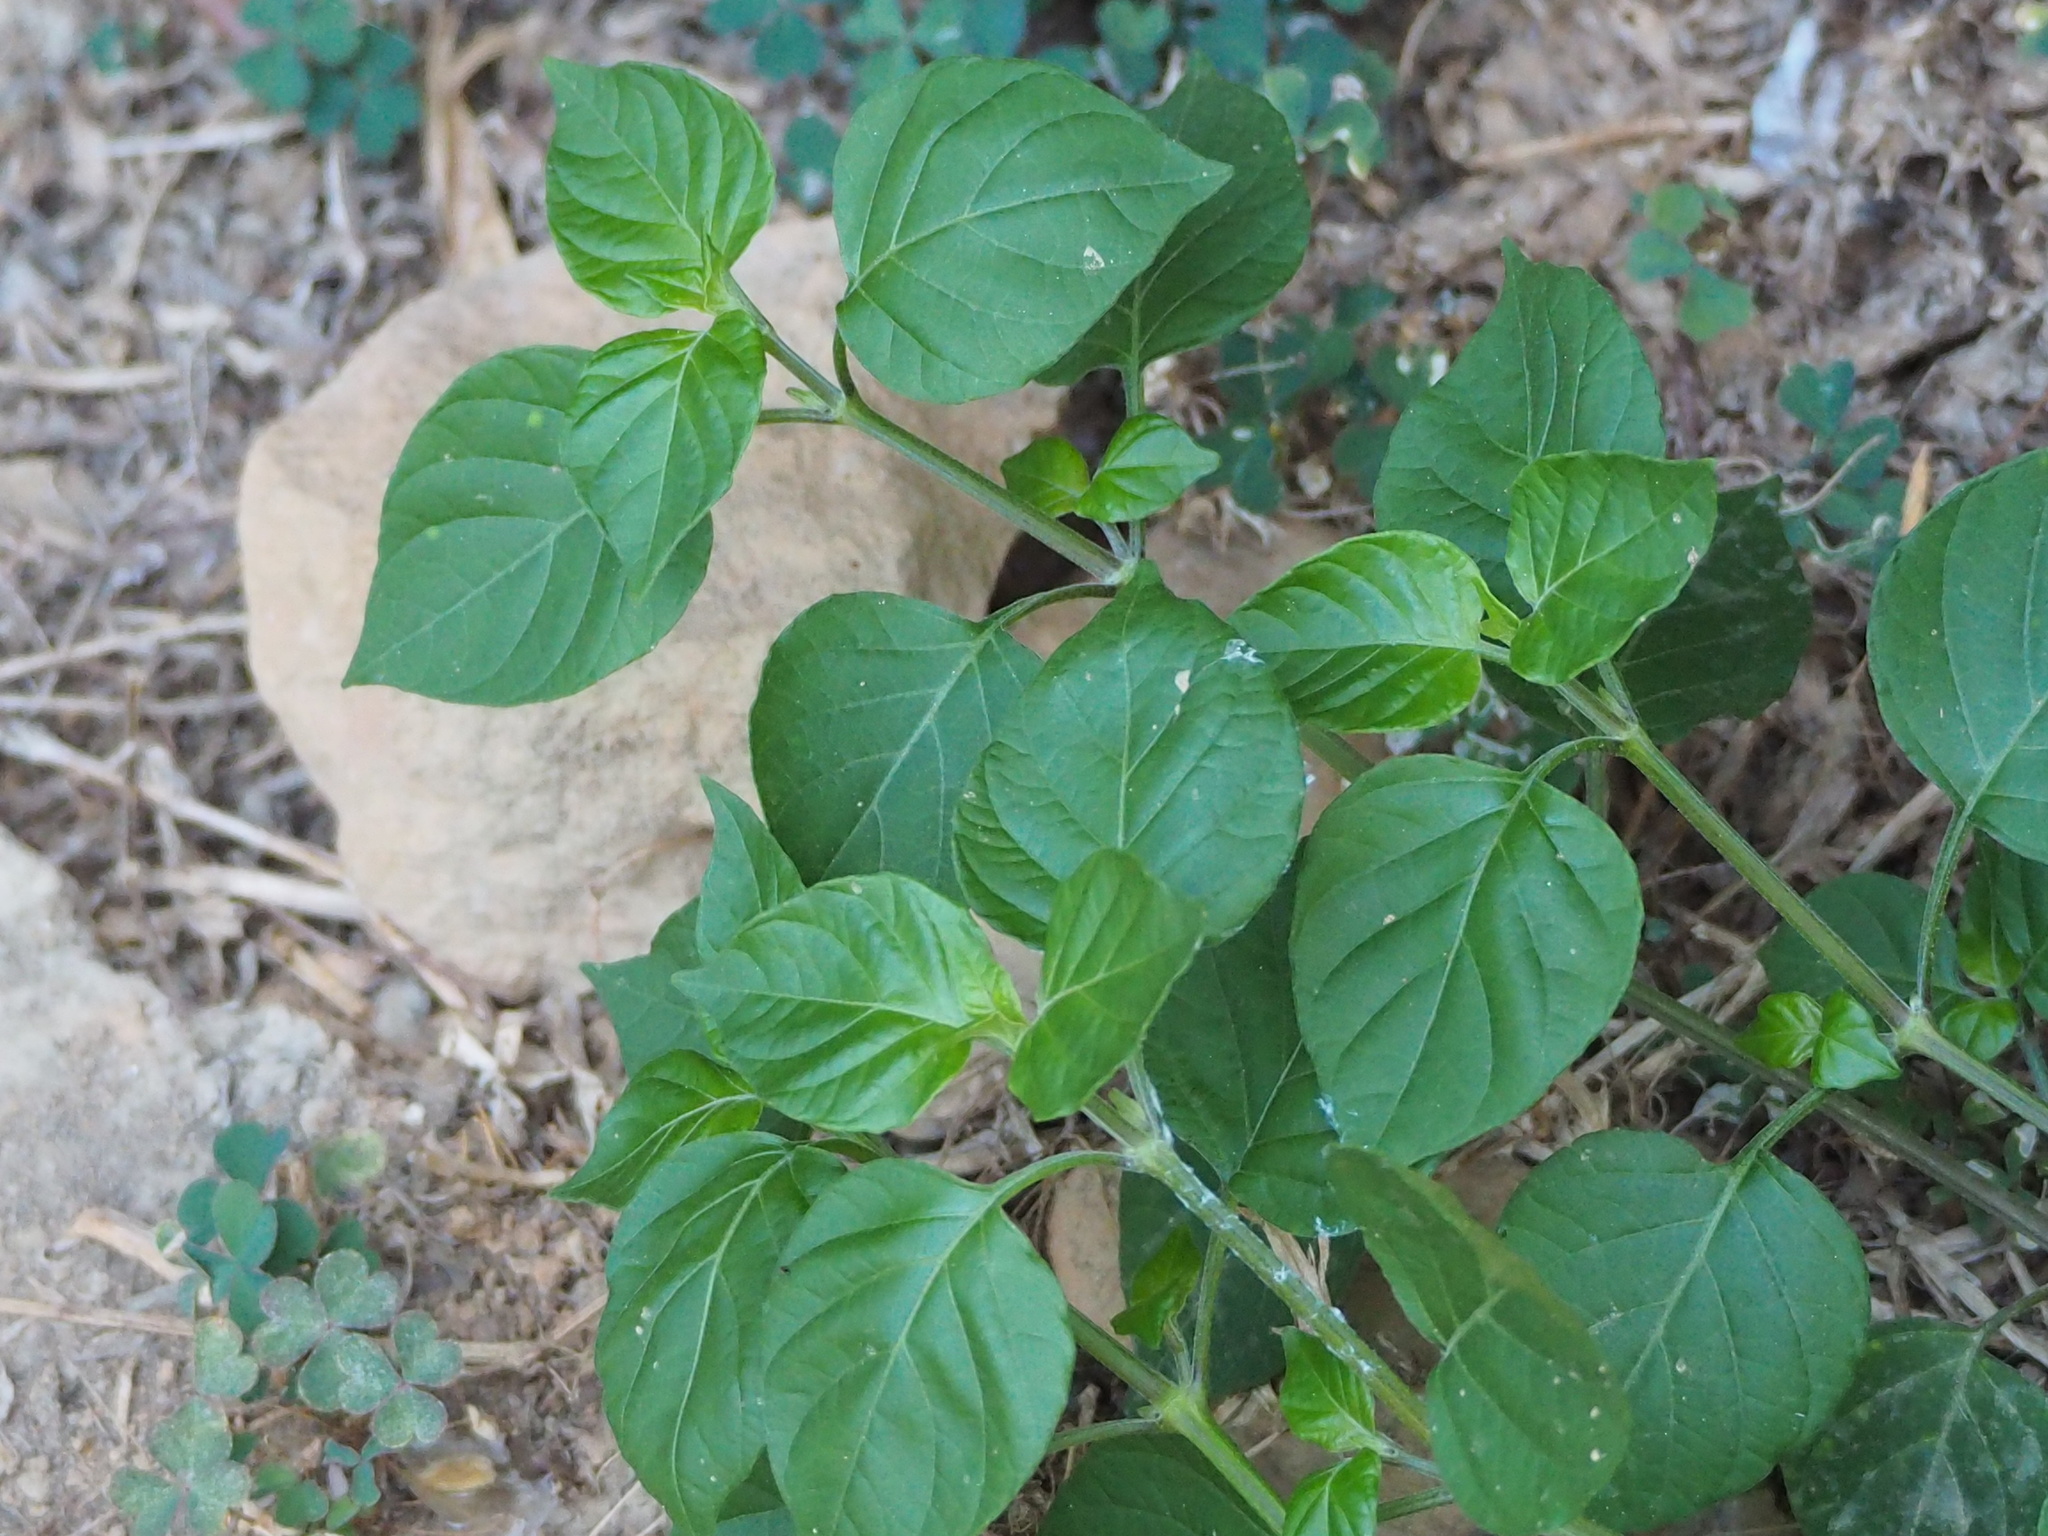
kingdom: Plantae
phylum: Tracheophyta
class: Magnoliopsida
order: Lamiales
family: Acanthaceae
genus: Asystasia
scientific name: Asystasia gangetica
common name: Chinese violet
